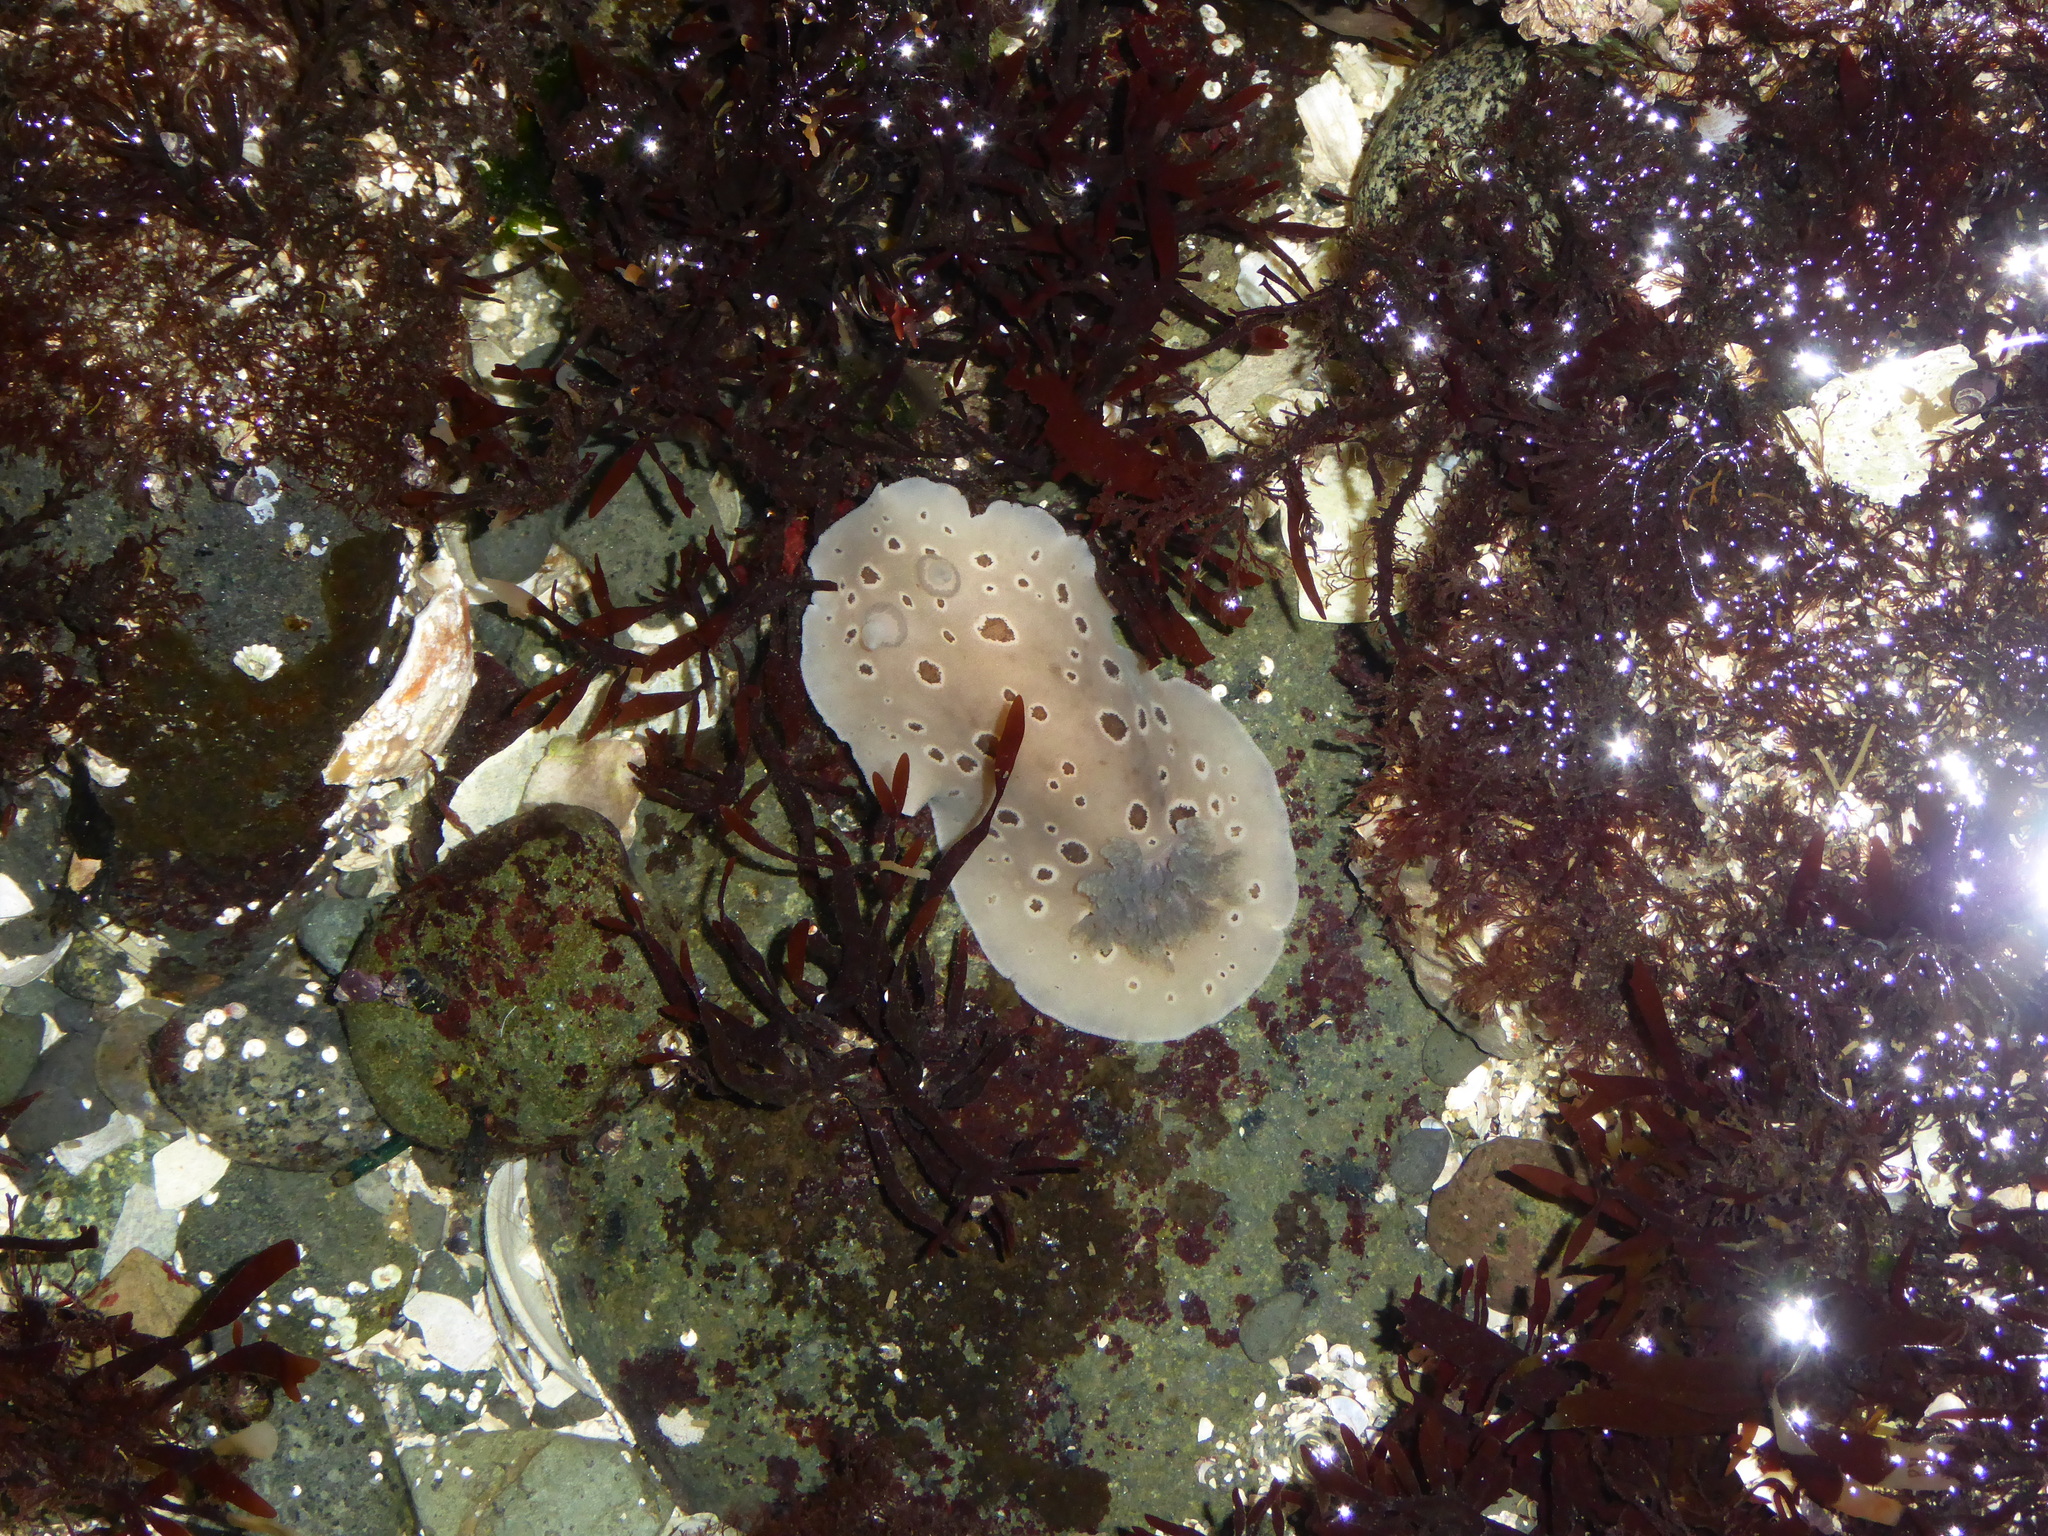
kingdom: Animalia
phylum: Mollusca
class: Gastropoda
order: Nudibranchia
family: Discodorididae
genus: Diaulula
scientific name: Diaulula odonoghuei
